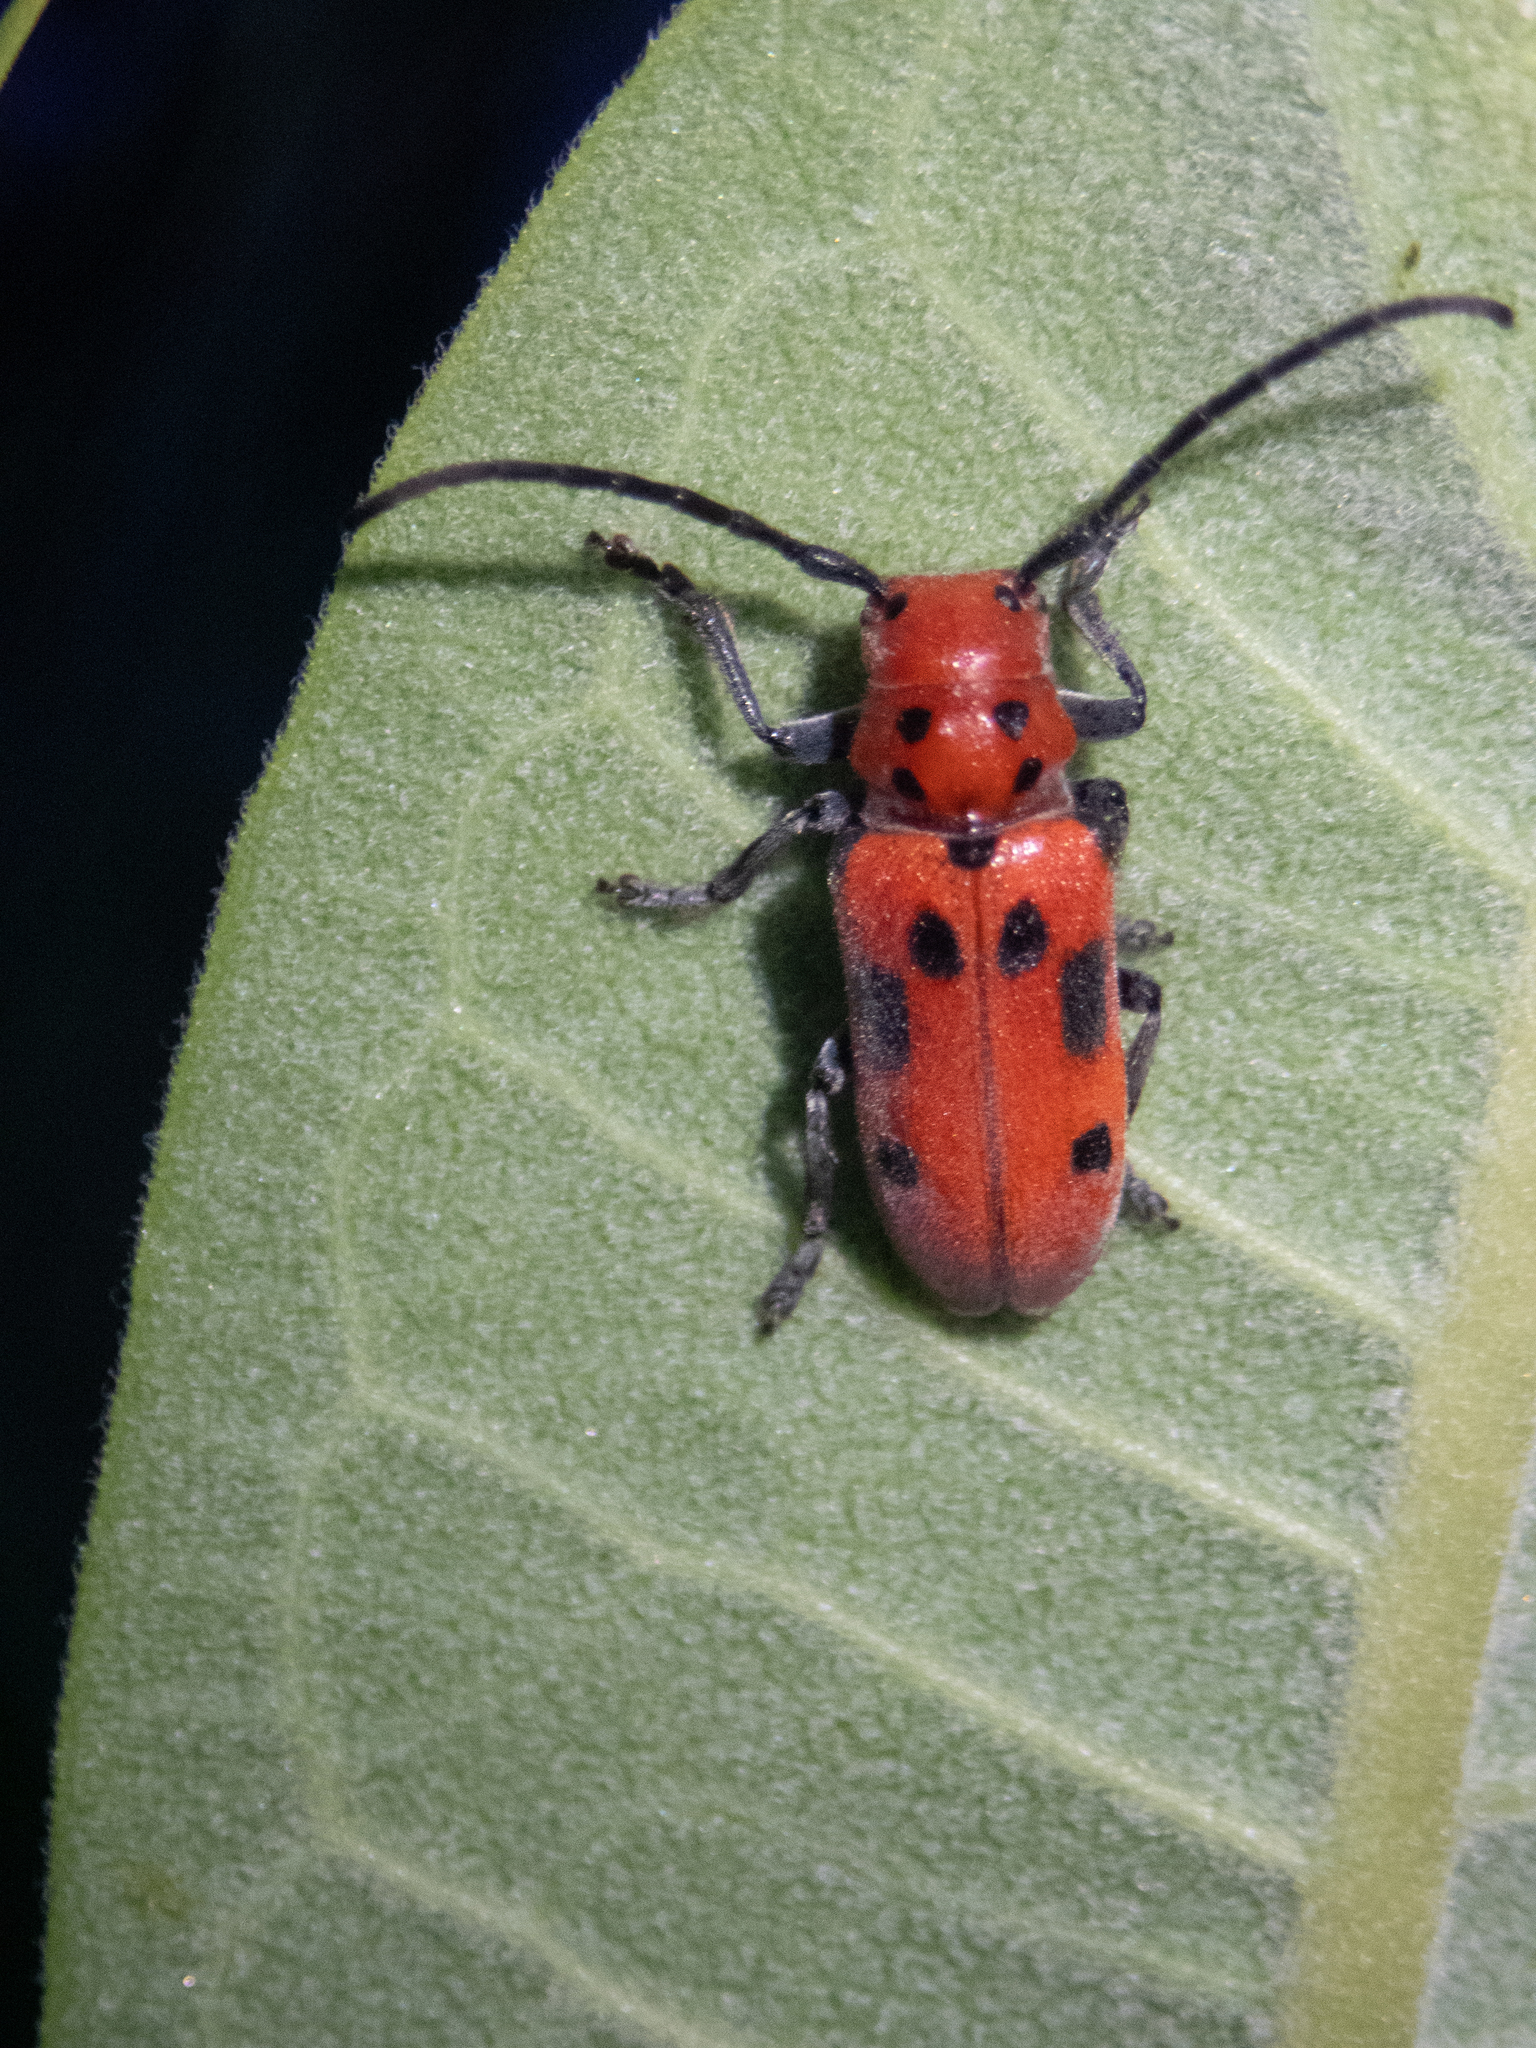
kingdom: Animalia
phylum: Arthropoda
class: Insecta
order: Coleoptera
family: Cerambycidae
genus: Tetraopes
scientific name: Tetraopes tetrophthalmus
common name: Red milkweed beetle
